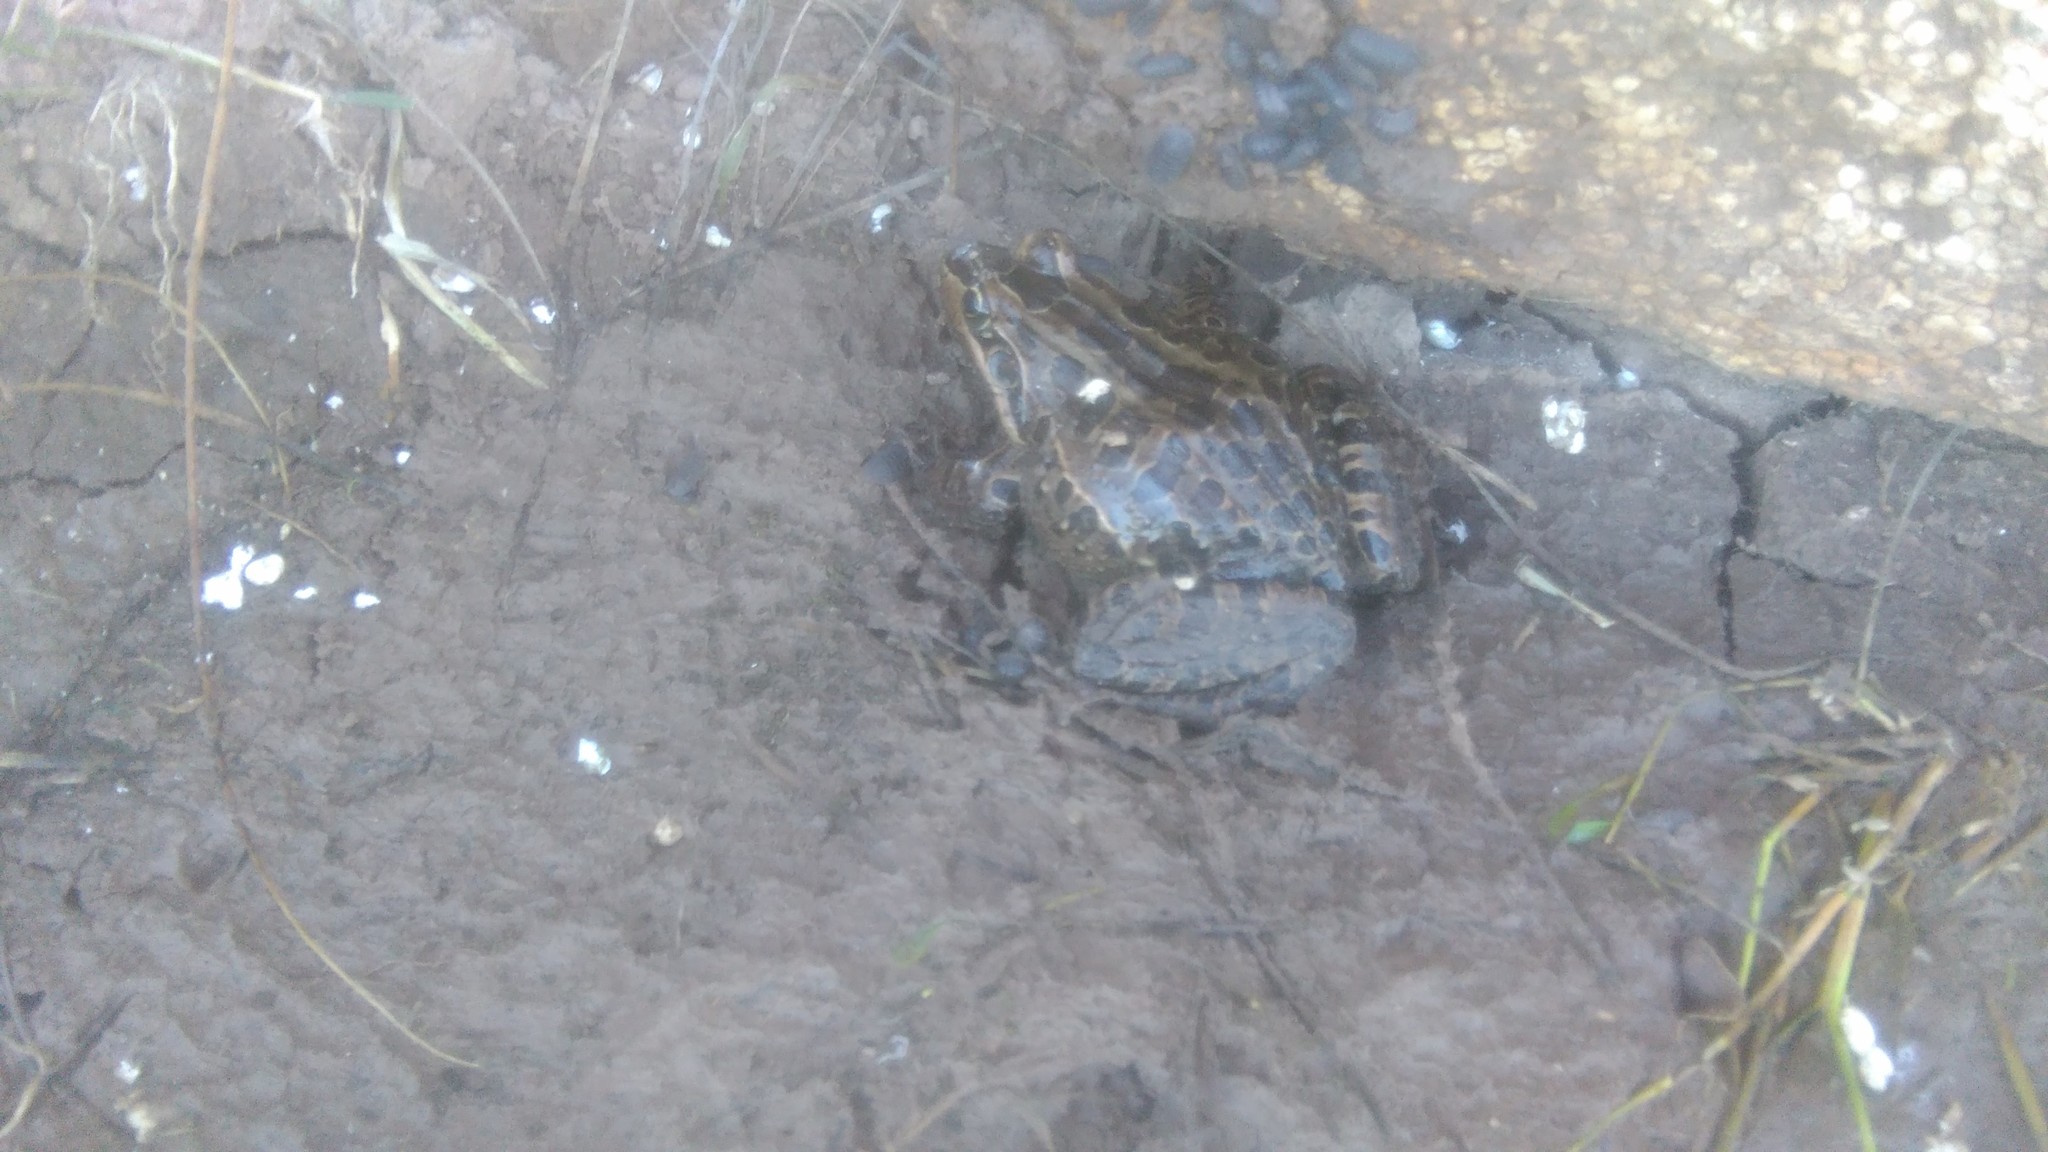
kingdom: Animalia
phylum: Chordata
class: Amphibia
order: Anura
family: Leptodactylidae
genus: Leptodactylus
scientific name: Leptodactylus luctator
